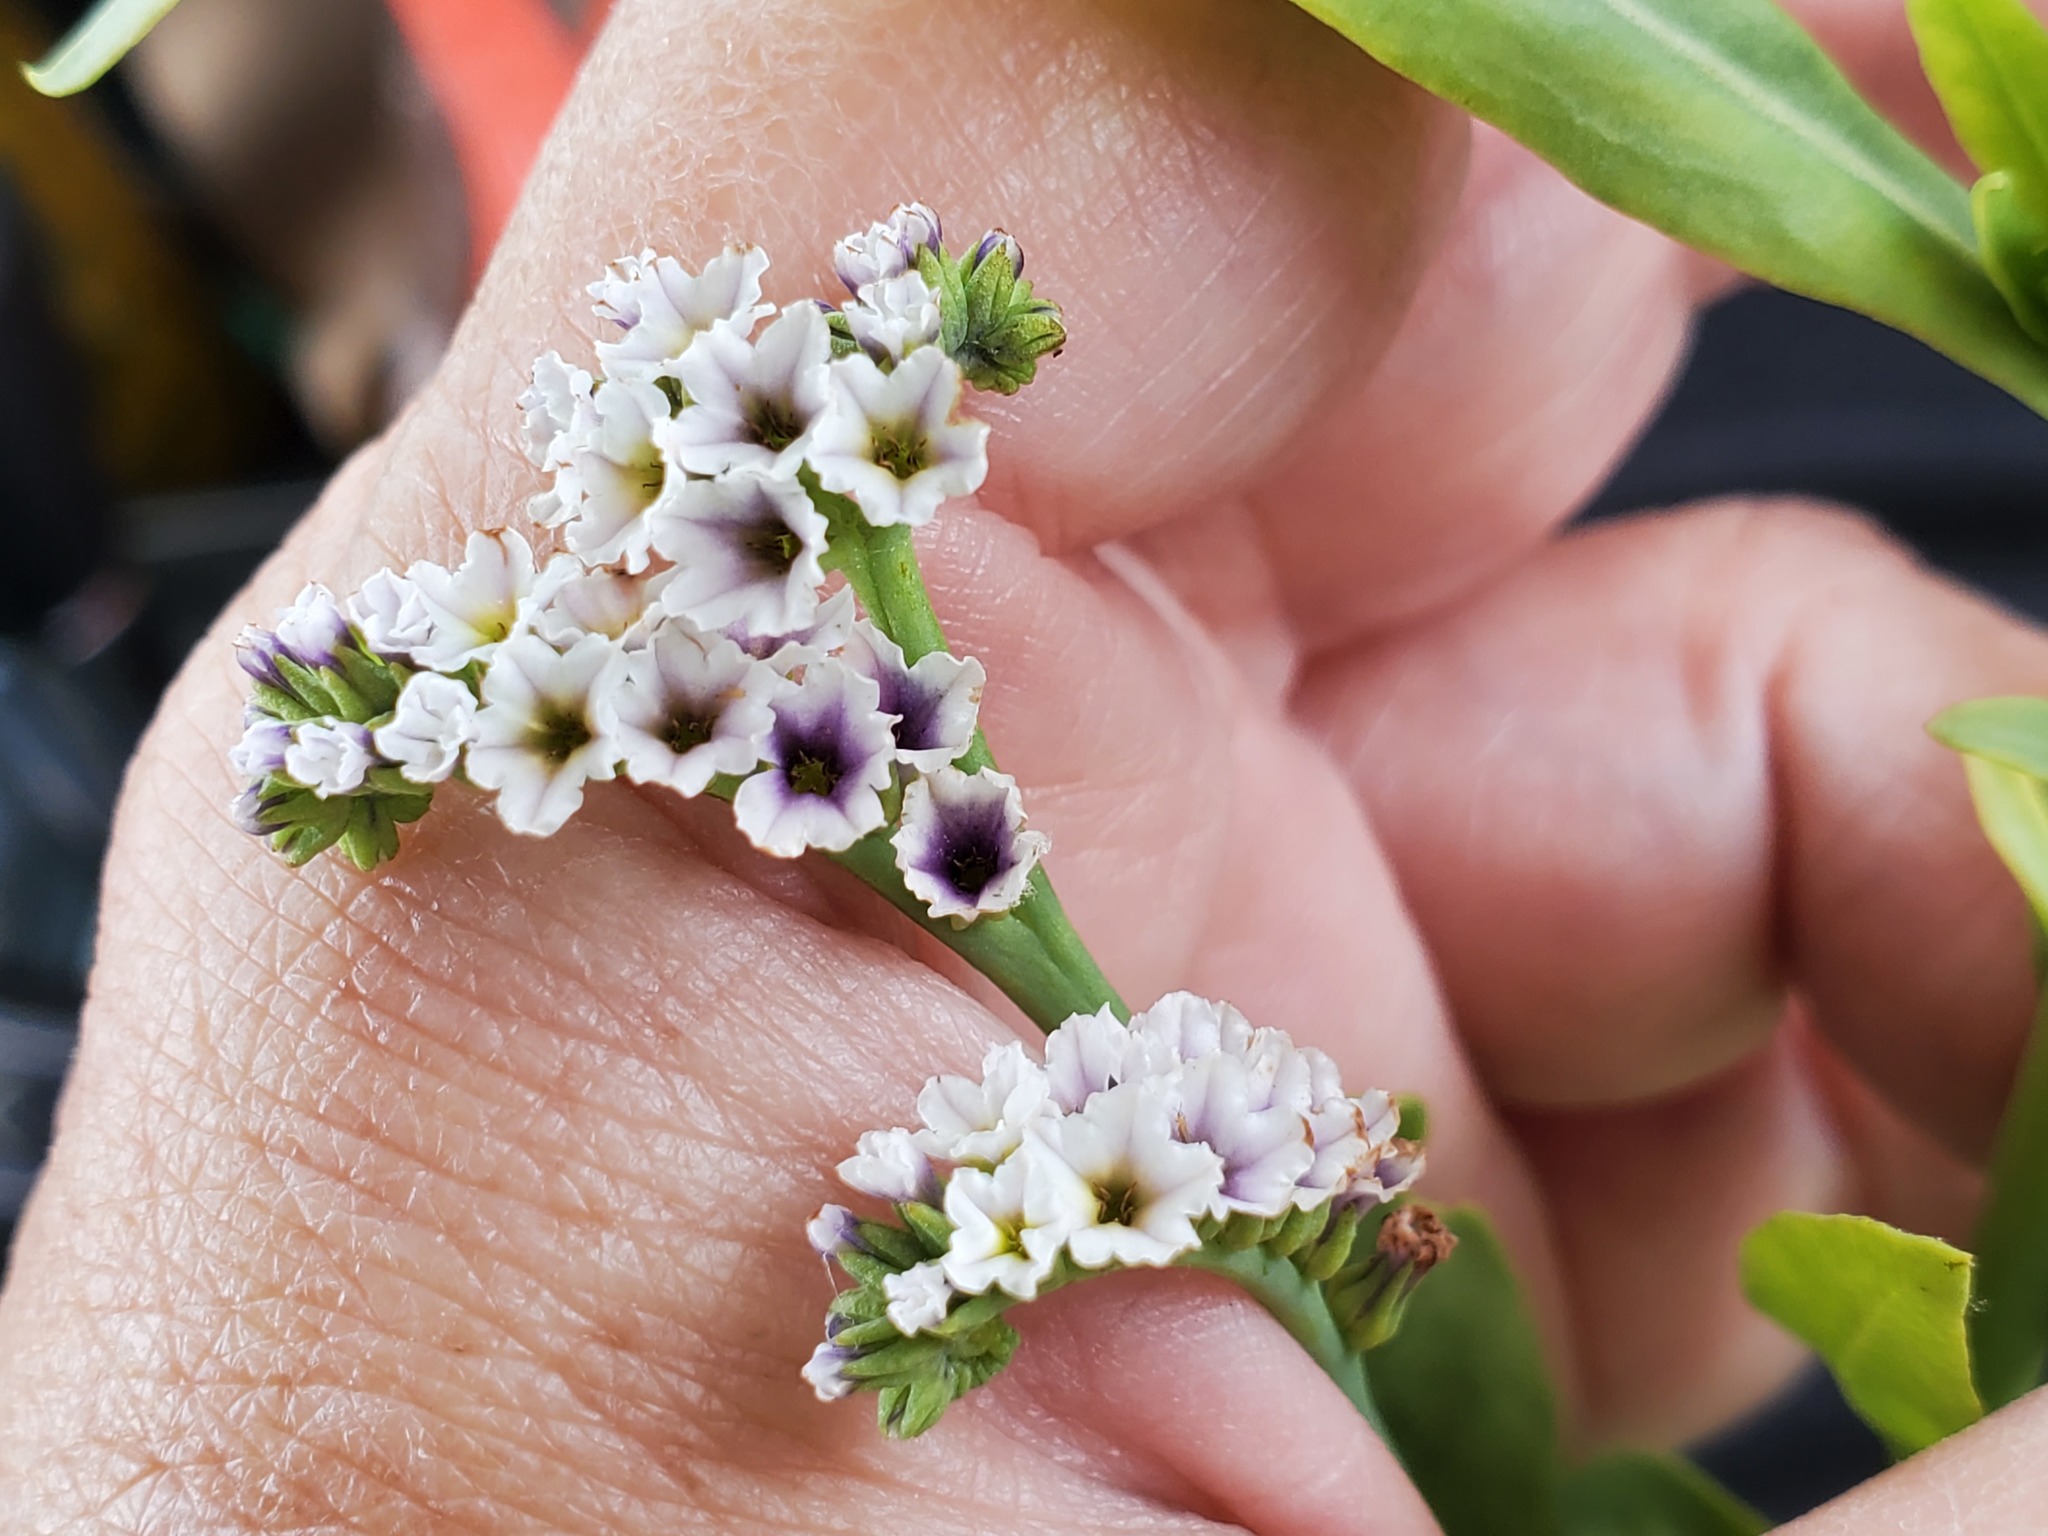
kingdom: Plantae
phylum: Tracheophyta
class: Magnoliopsida
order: Boraginales
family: Heliotropiaceae
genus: Heliotropium
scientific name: Heliotropium curassavicum
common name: Seaside heliotrope
